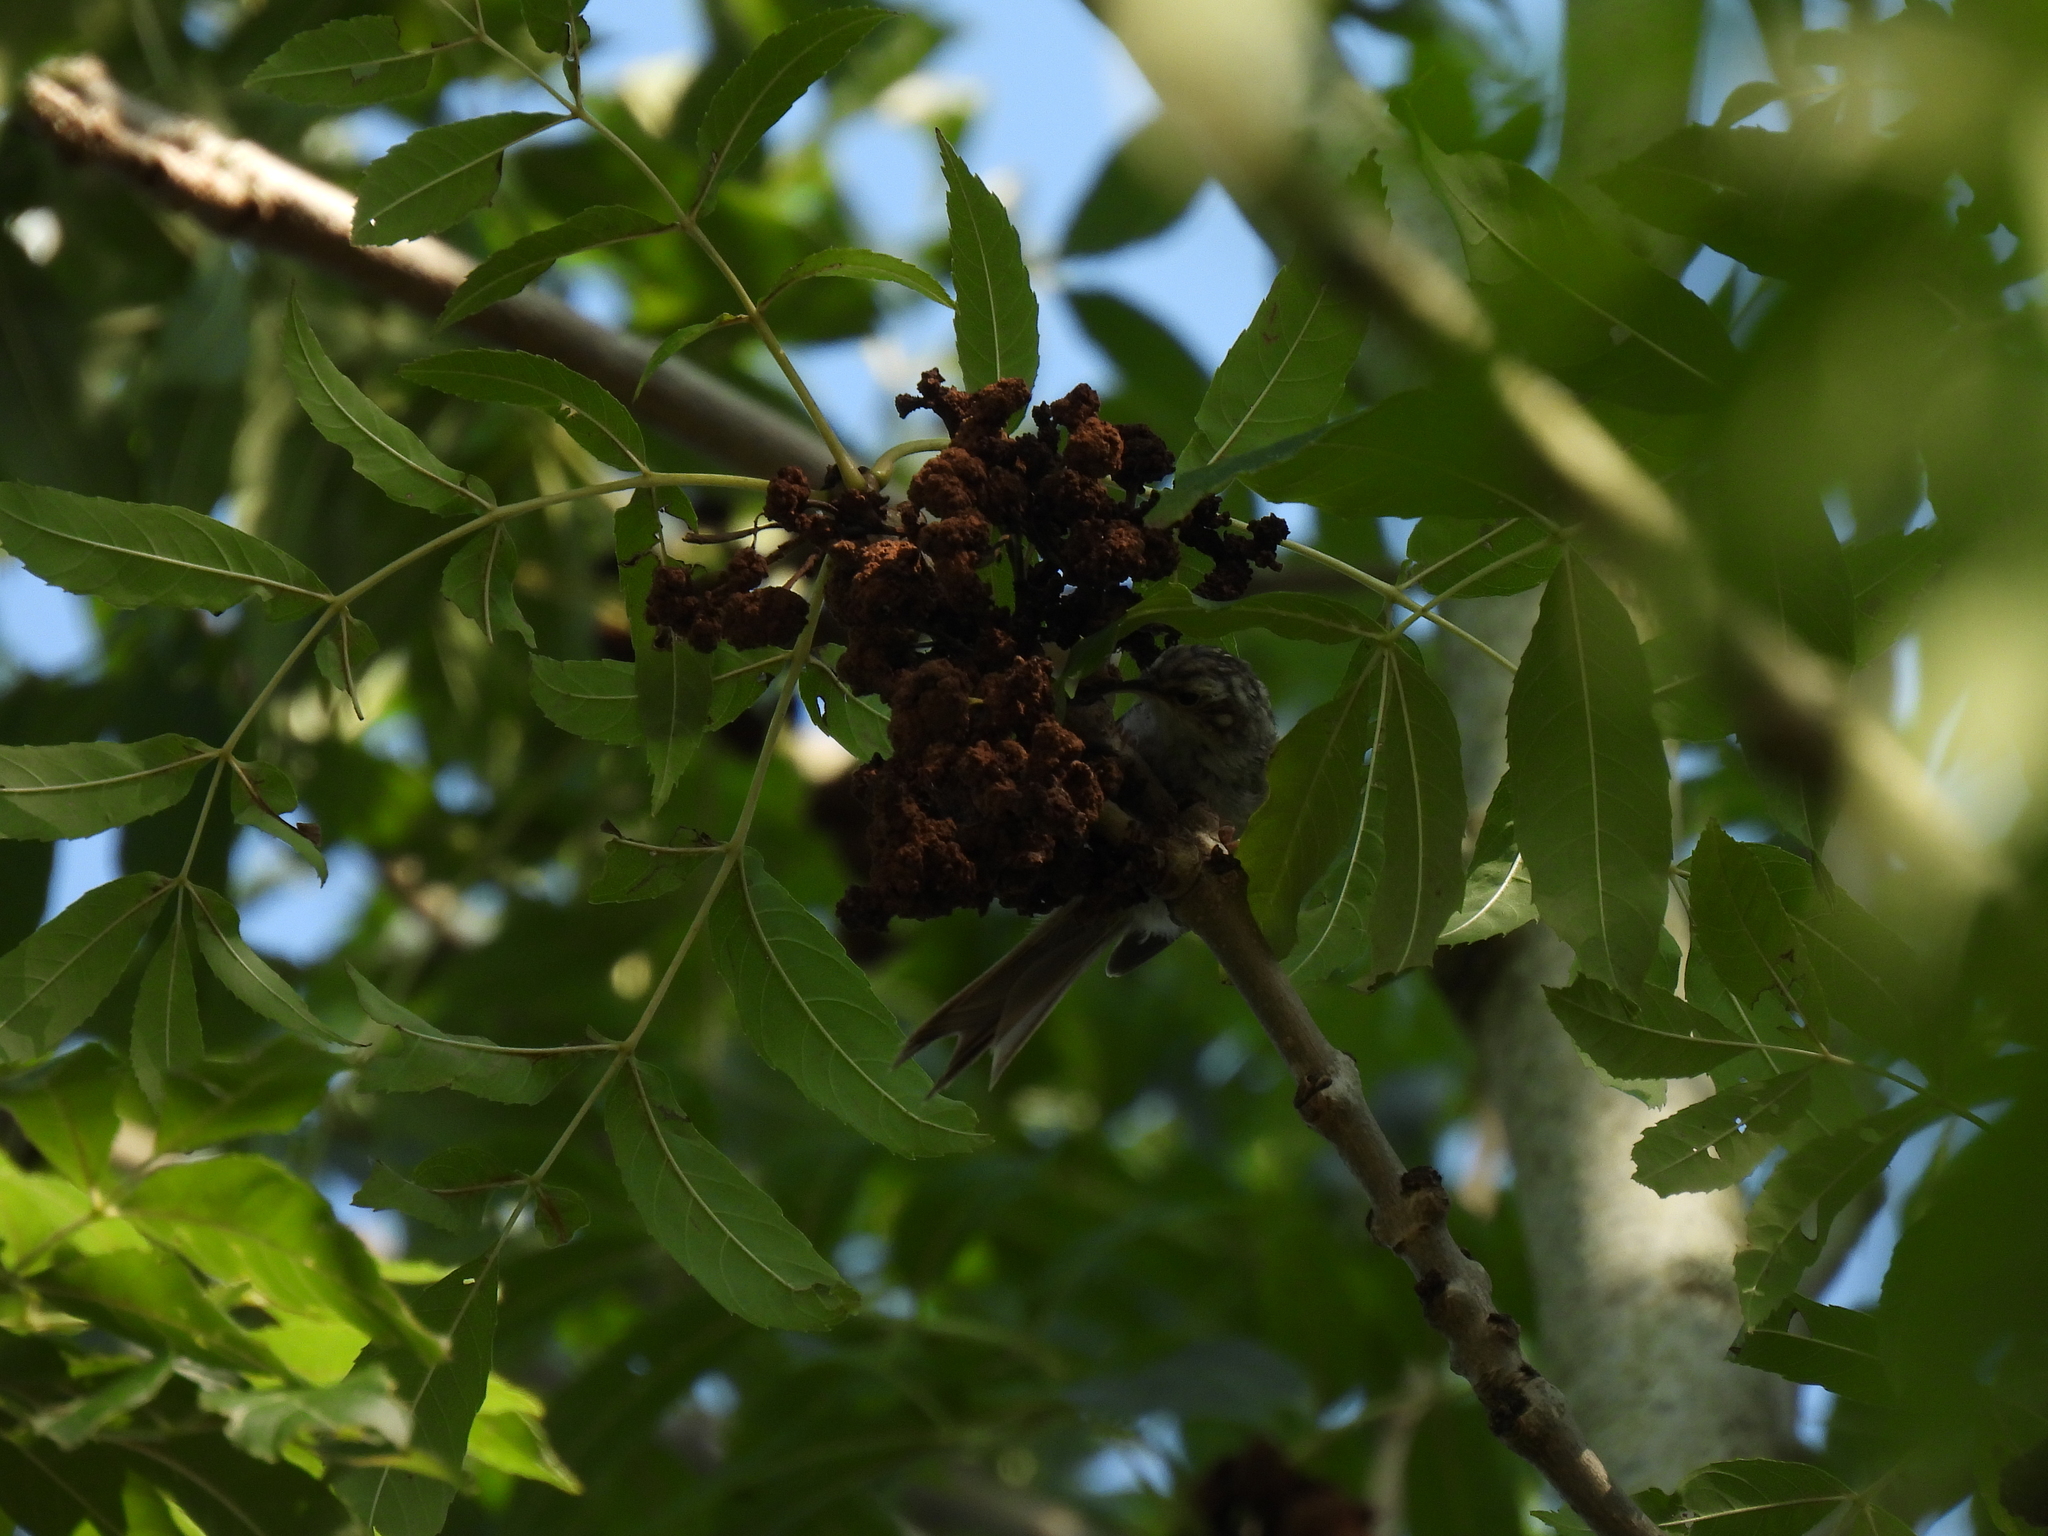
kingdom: Animalia
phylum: Chordata
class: Aves
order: Passeriformes
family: Certhiidae
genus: Certhia
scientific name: Certhia brachydactyla
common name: Short-toed treecreeper
